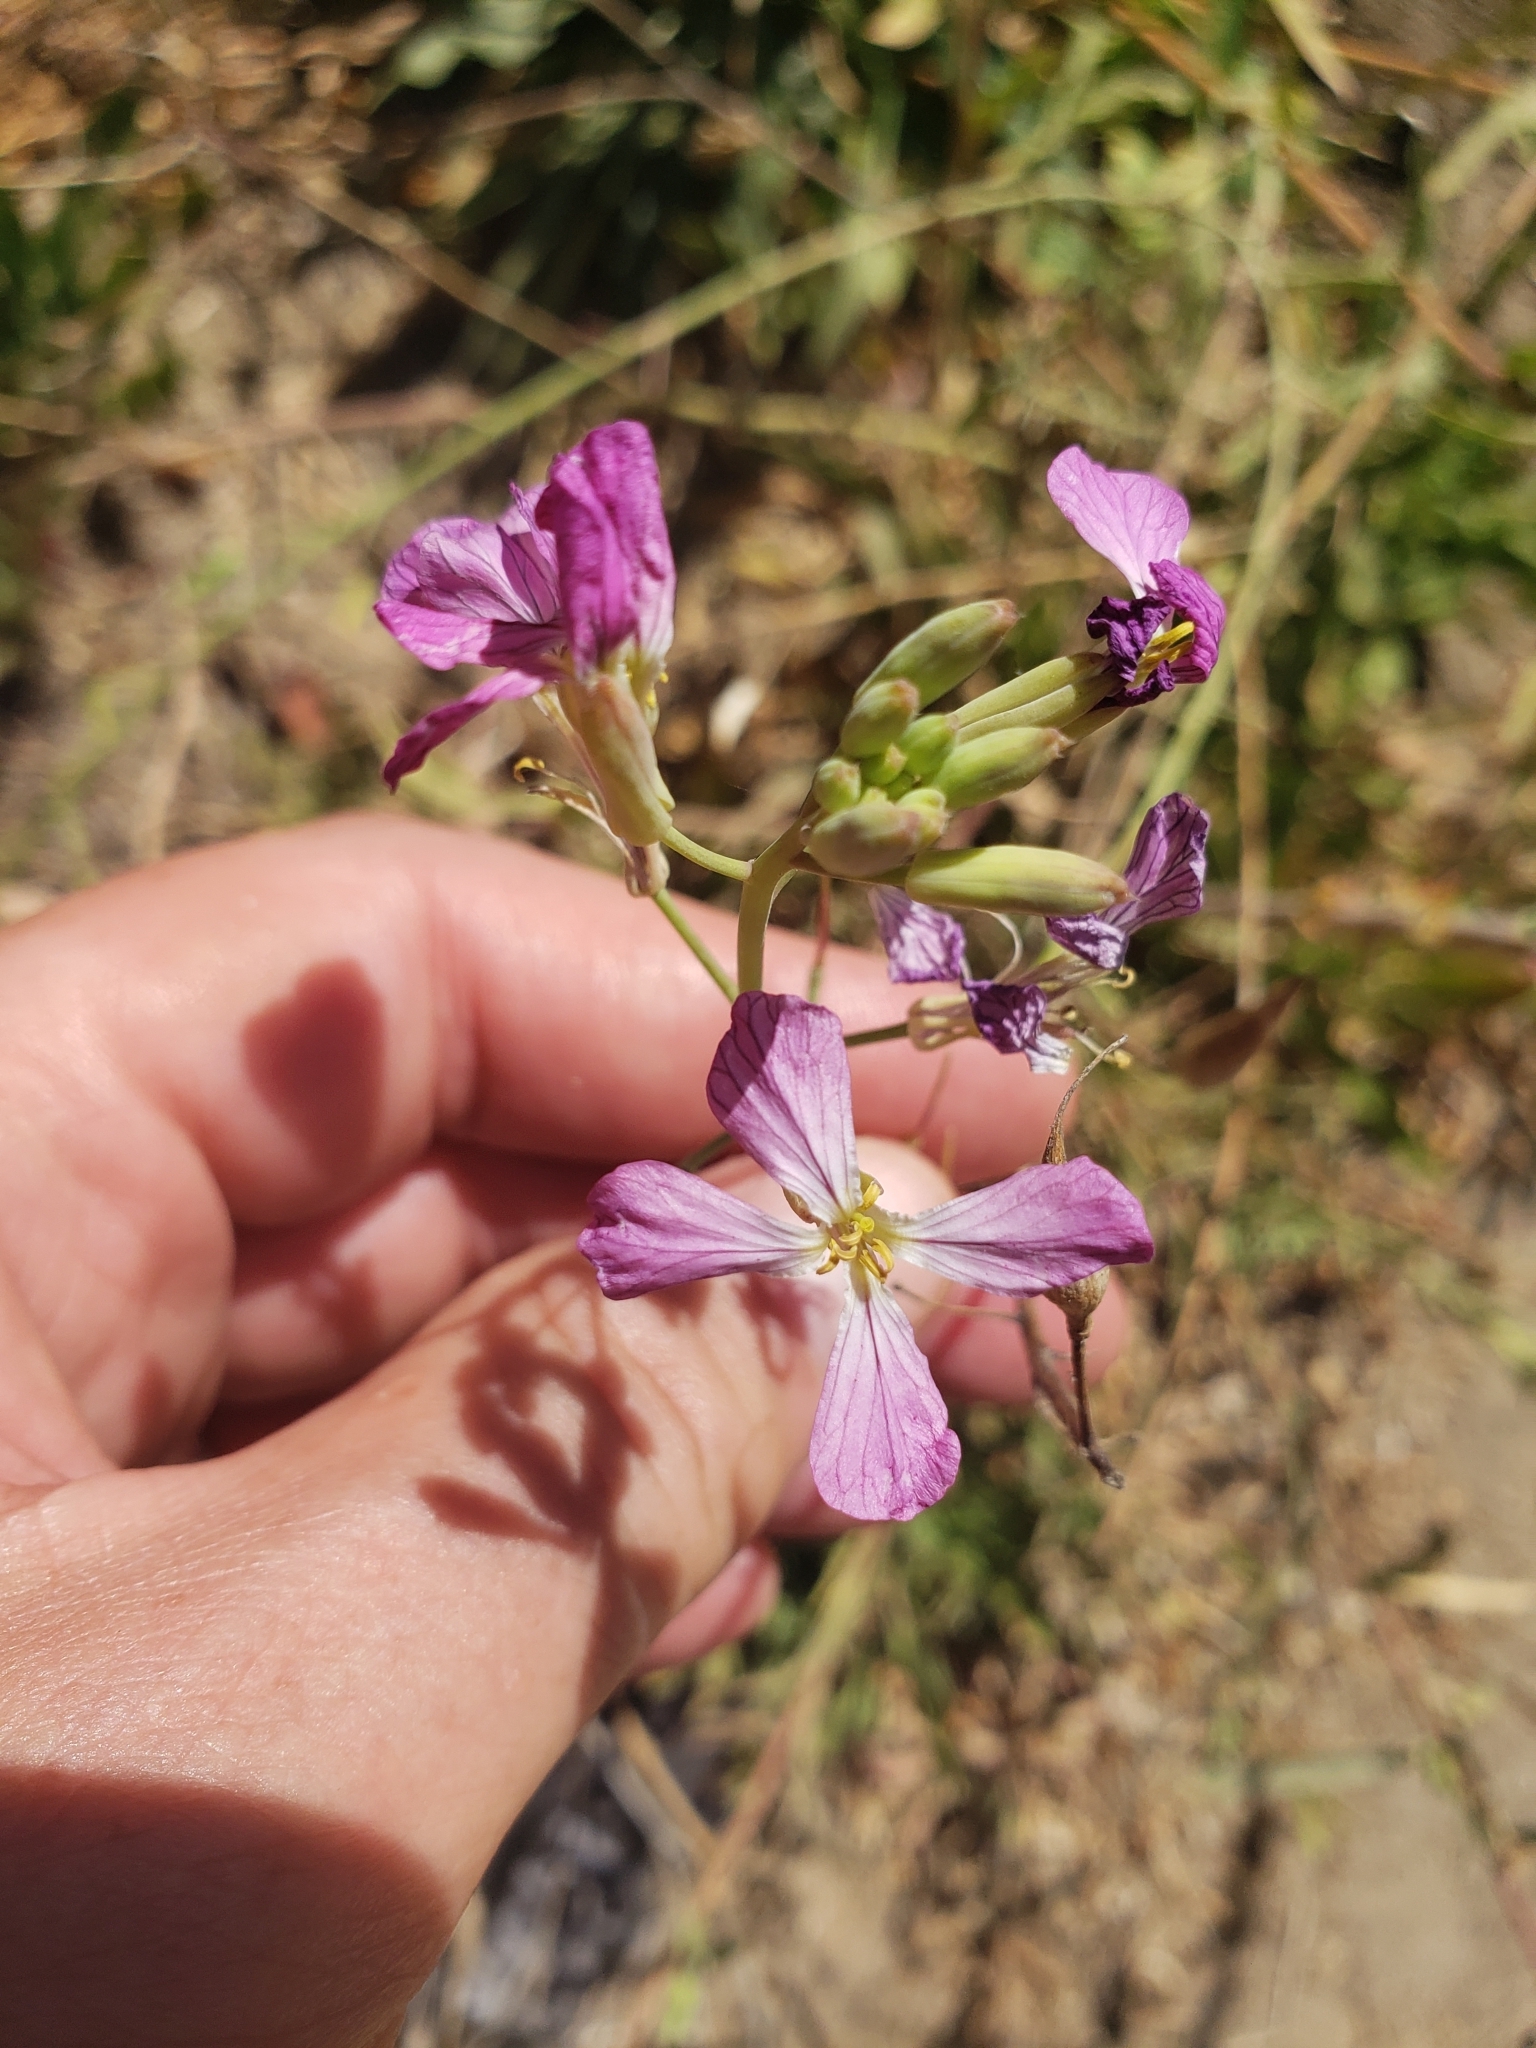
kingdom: Plantae
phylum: Tracheophyta
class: Magnoliopsida
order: Brassicales
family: Brassicaceae
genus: Raphanus
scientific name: Raphanus sativus
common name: Cultivated radish
